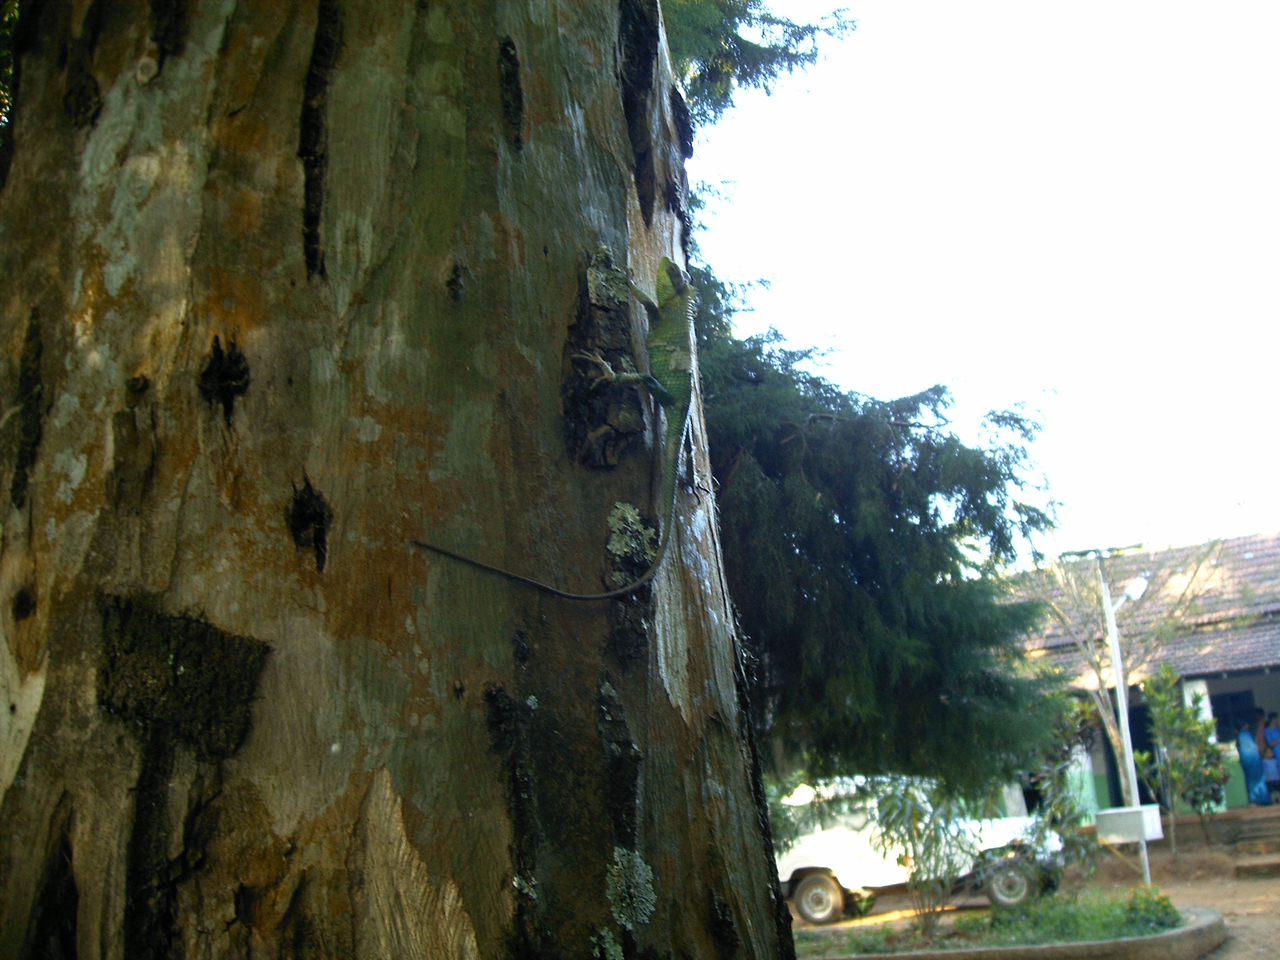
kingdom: Animalia
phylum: Chordata
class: Squamata
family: Agamidae
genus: Calotes
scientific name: Calotes nemoricola
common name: Nilgiri forest lizard
